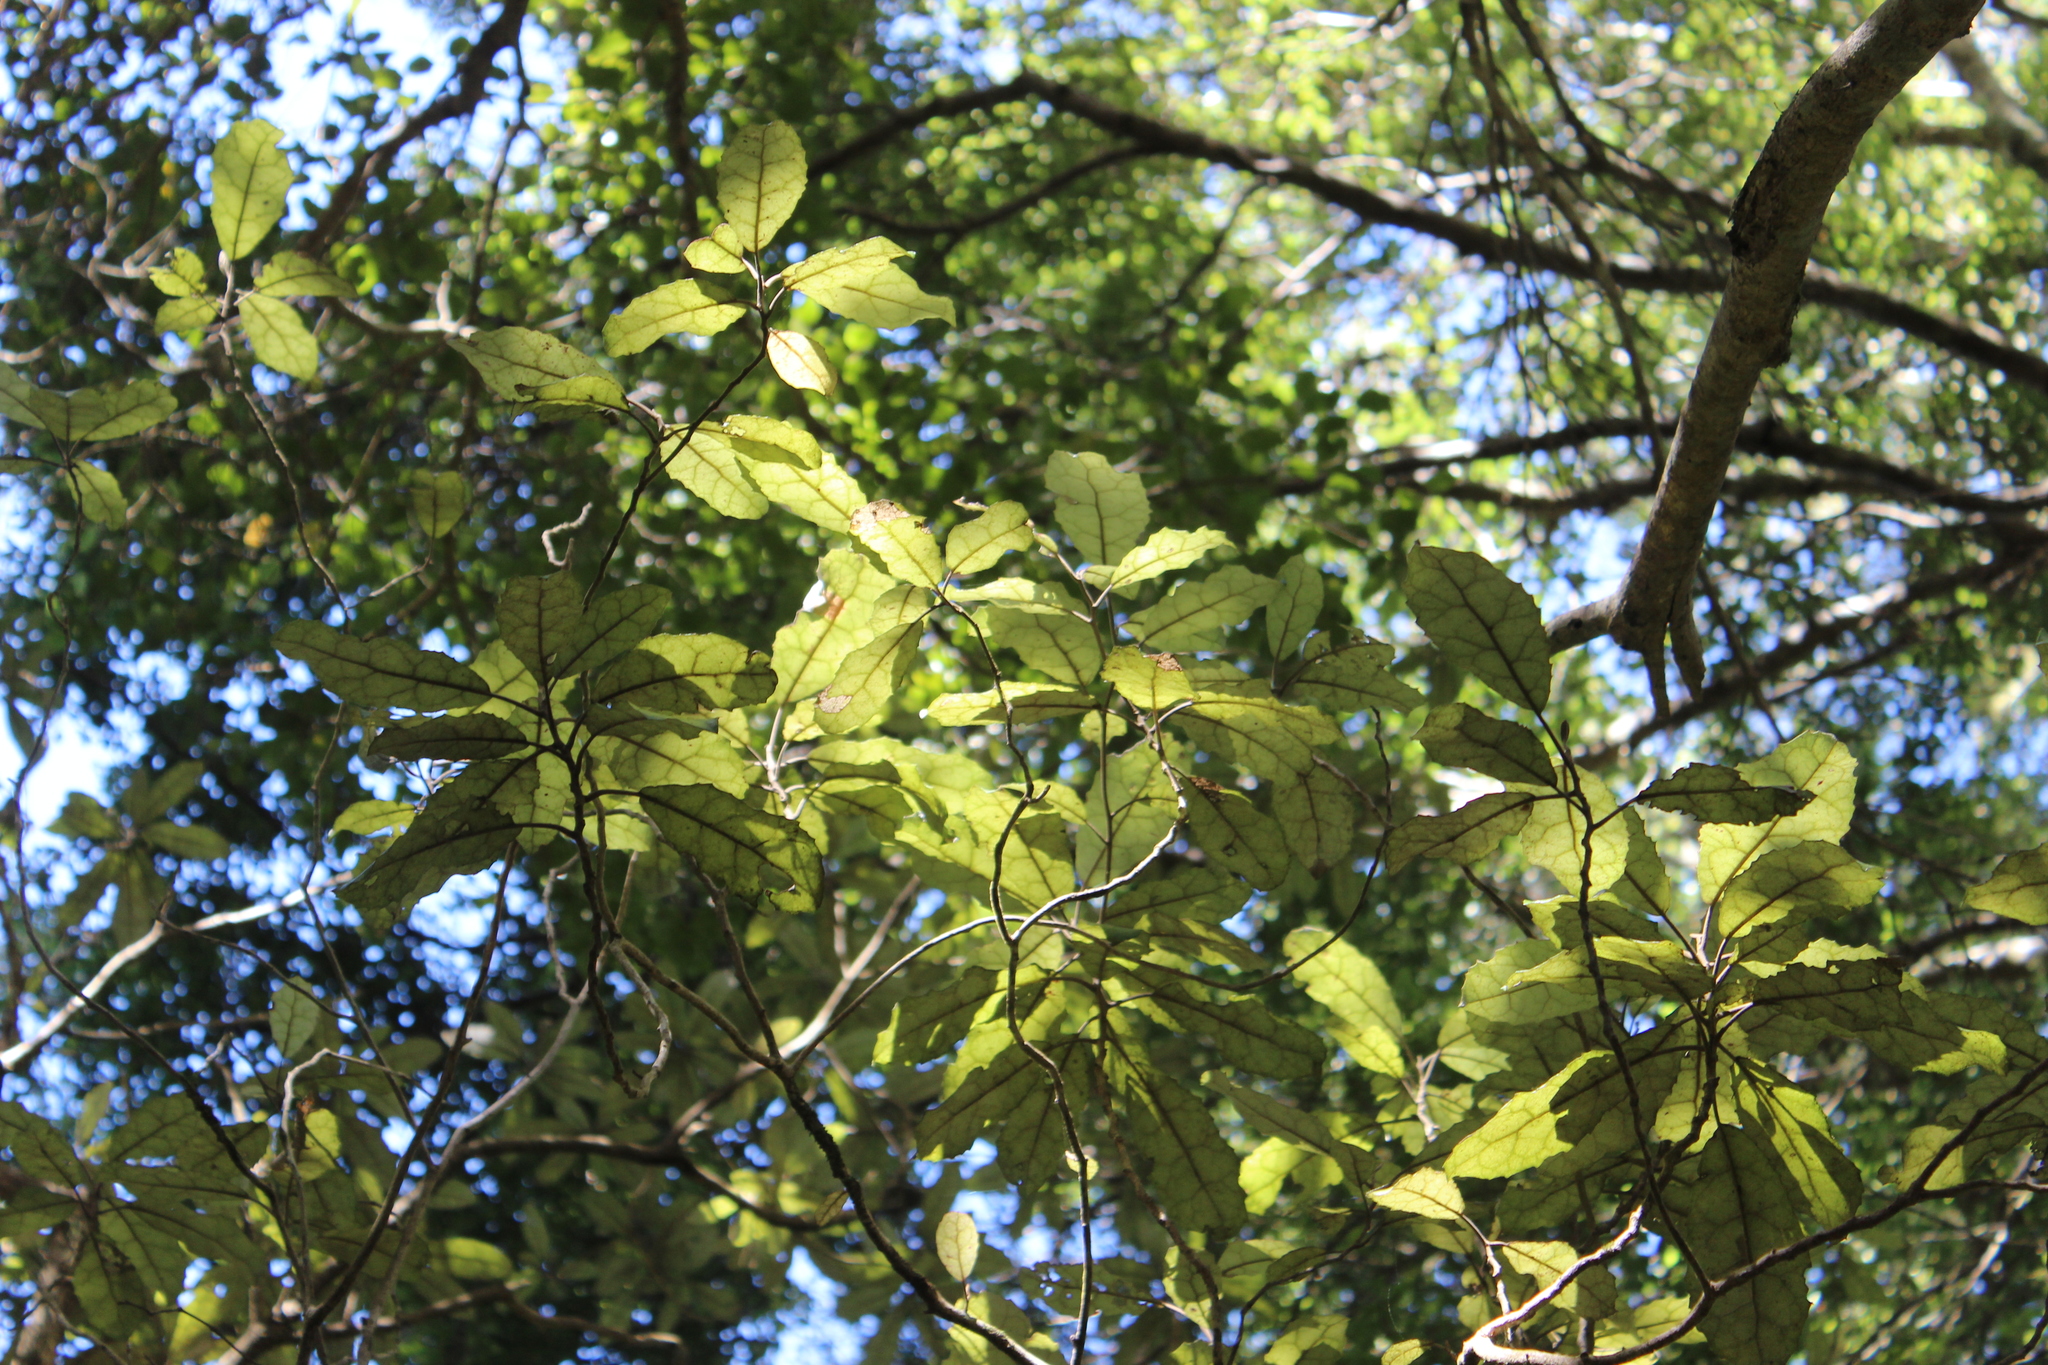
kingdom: Plantae
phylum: Tracheophyta
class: Magnoliopsida
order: Asterales
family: Asteraceae
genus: Olearia
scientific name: Olearia rani
